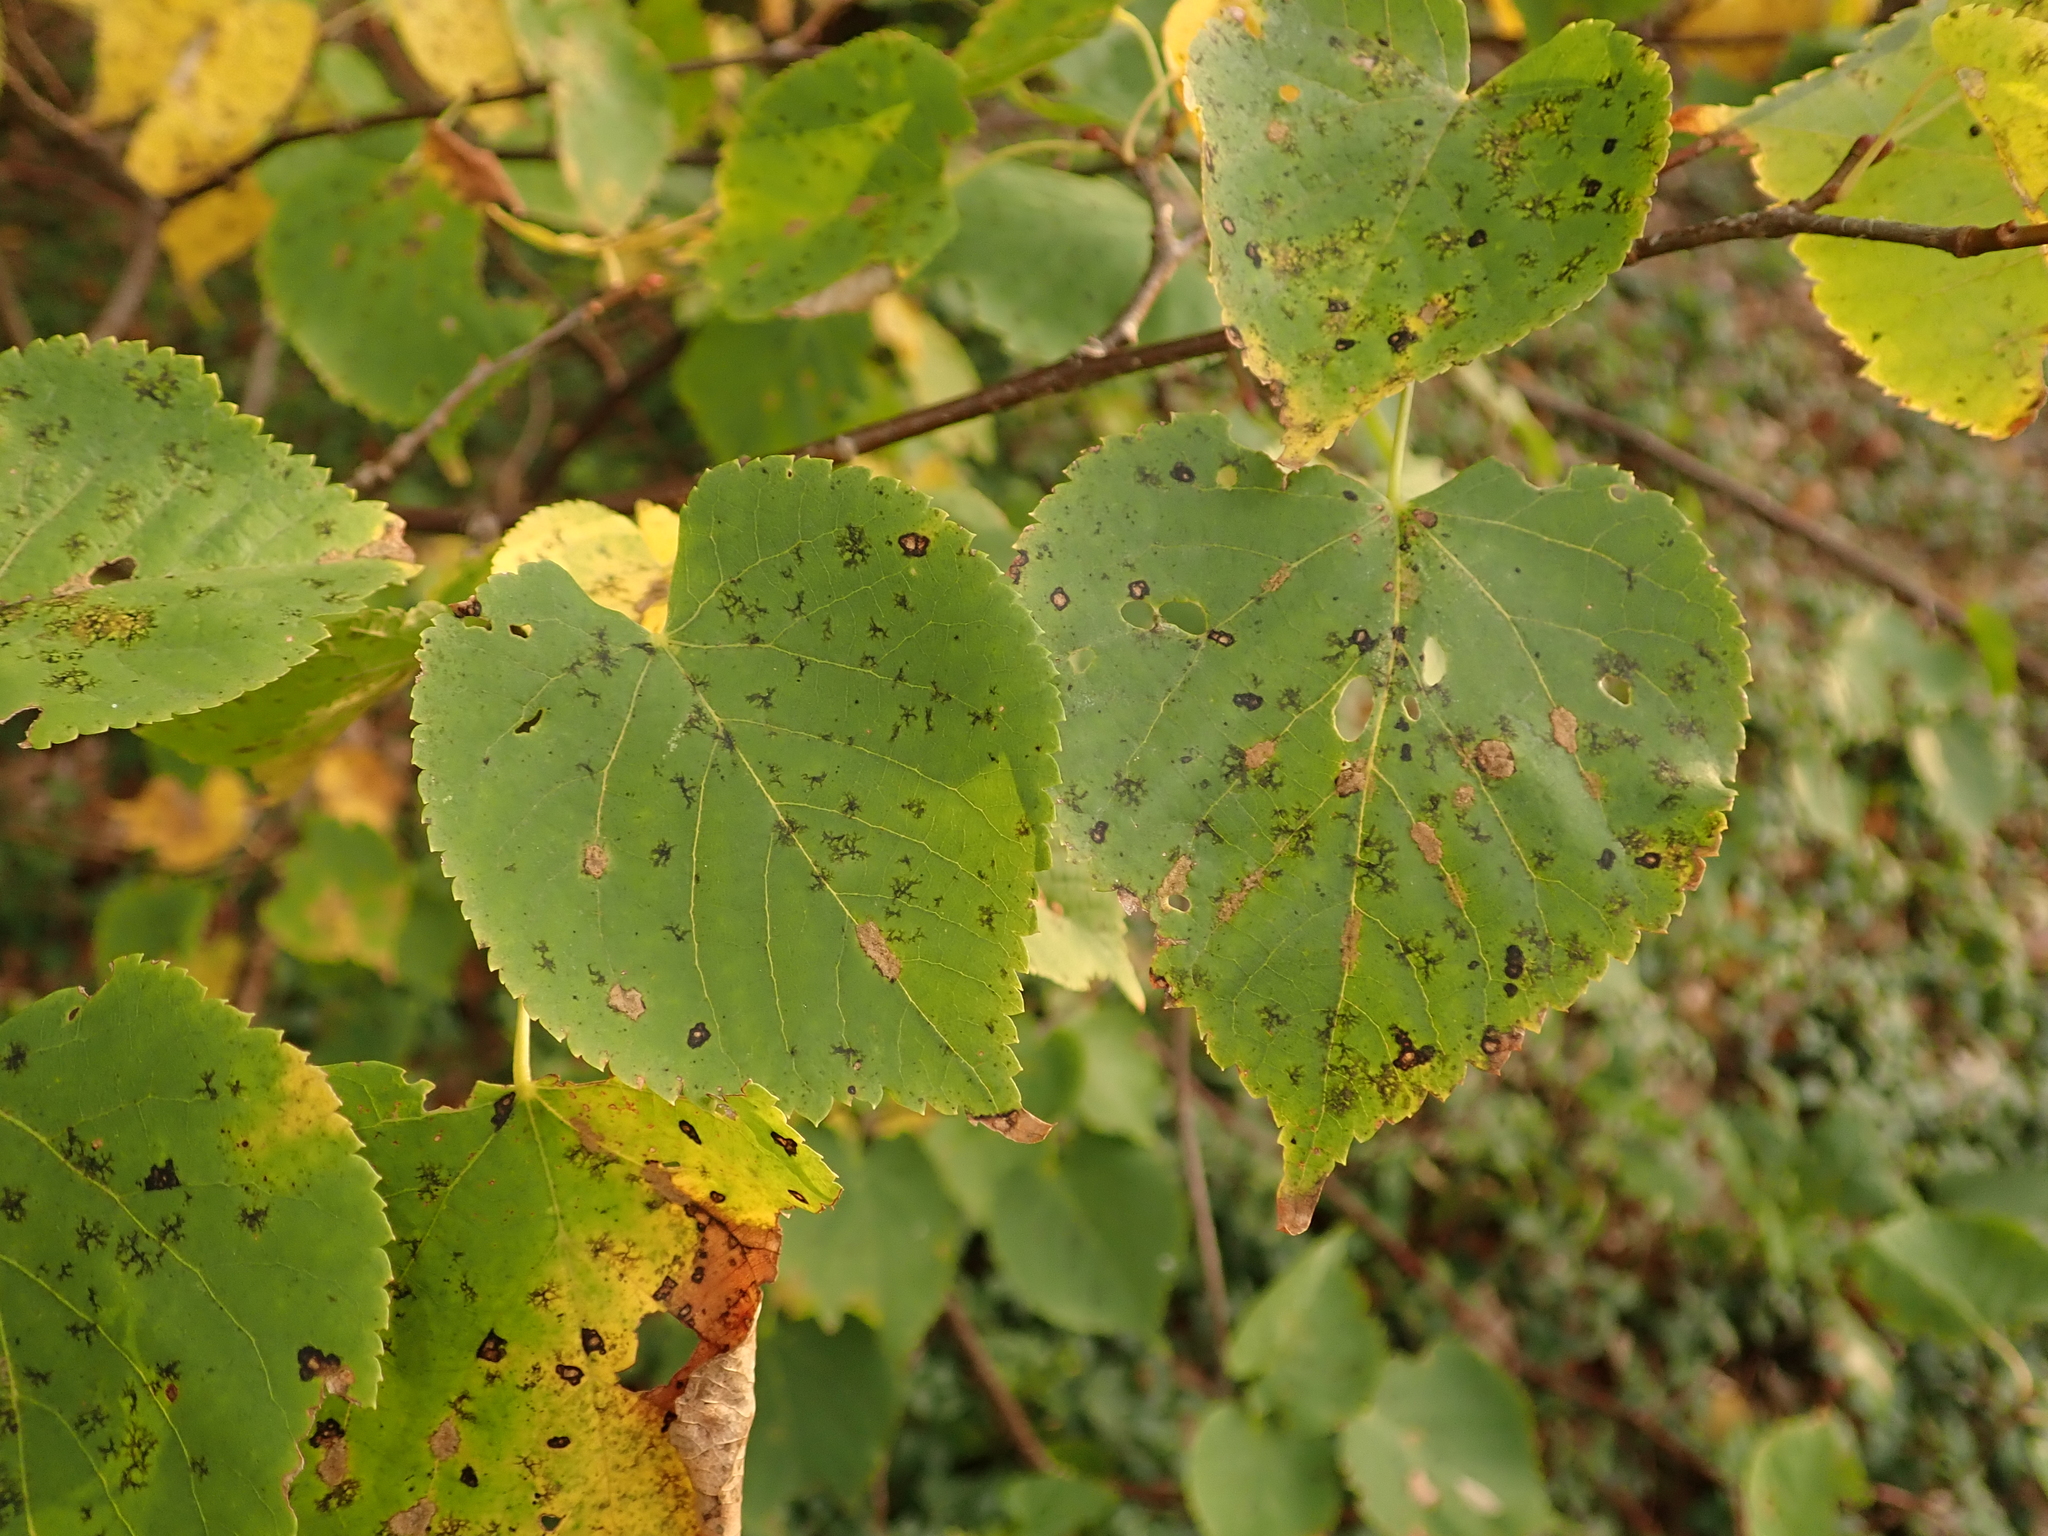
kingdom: Plantae
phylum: Tracheophyta
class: Magnoliopsida
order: Malvales
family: Malvaceae
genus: Tilia
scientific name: Tilia cordata
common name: Small-leaved lime
